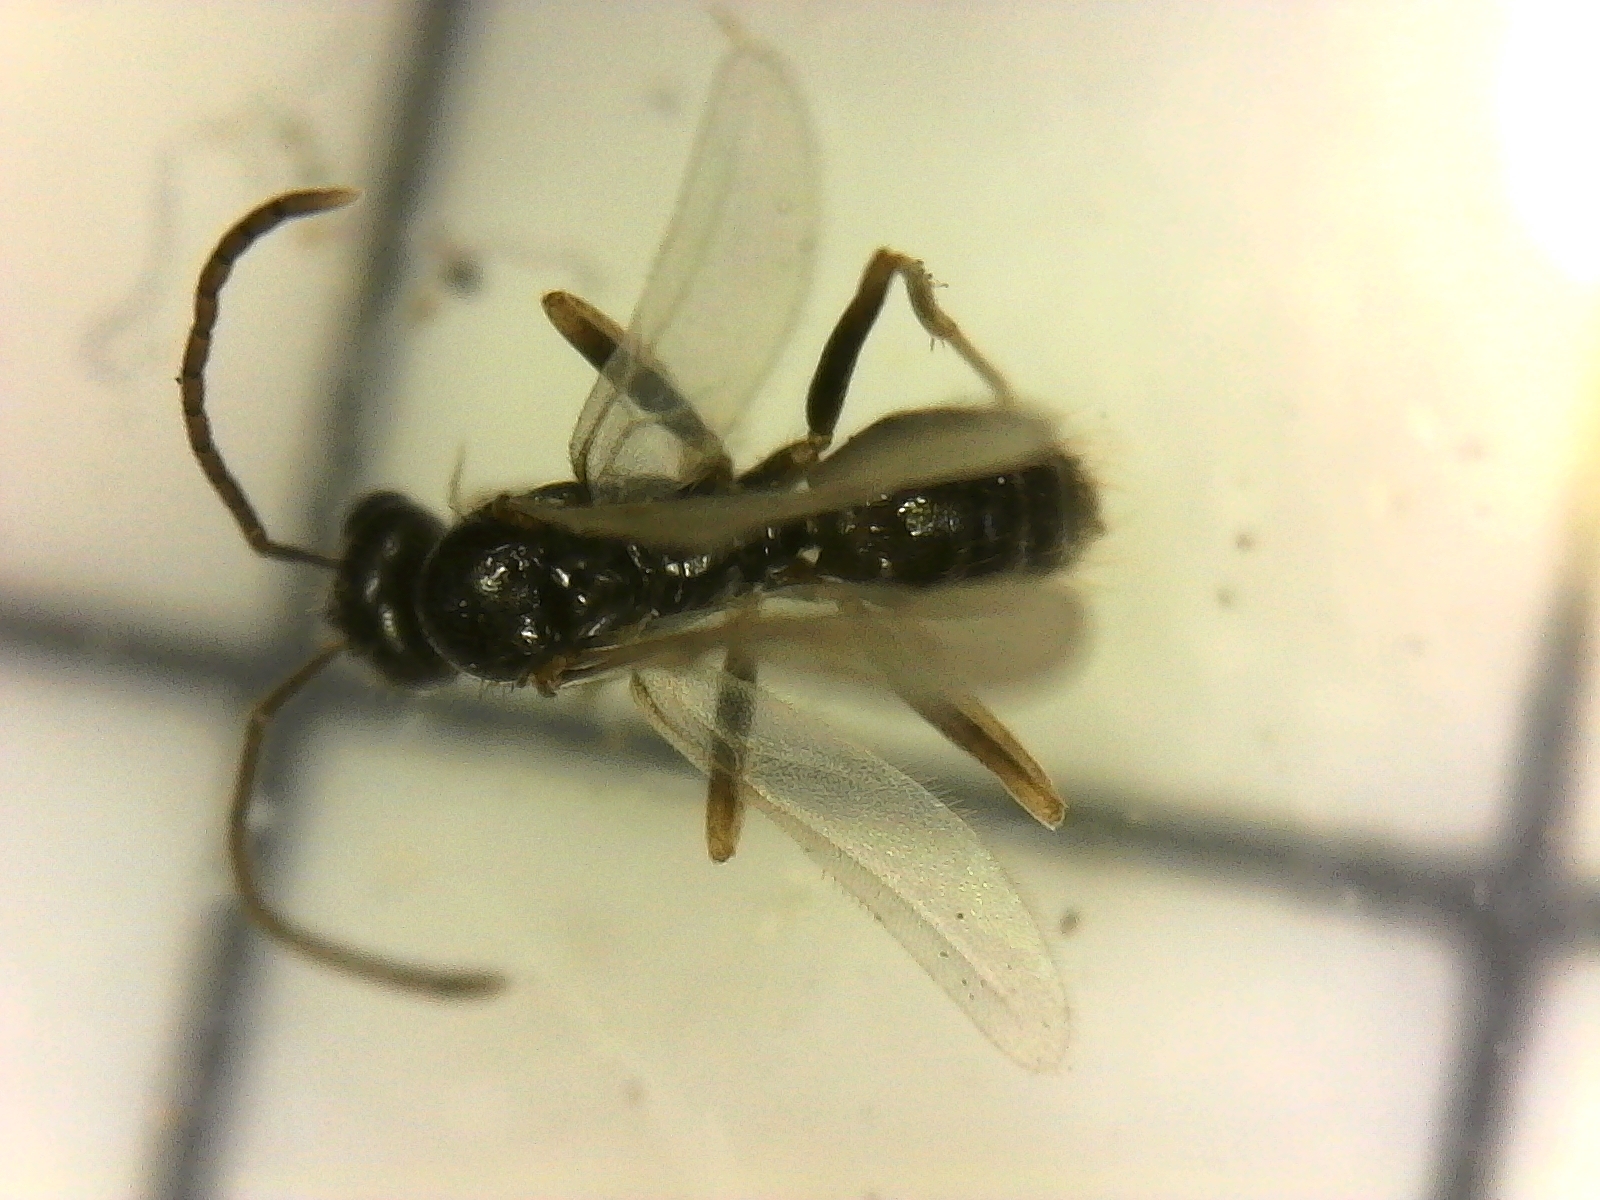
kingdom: Animalia
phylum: Arthropoda
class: Insecta
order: Hymenoptera
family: Formicidae
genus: Prenolepis
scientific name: Prenolepis imparis
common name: Small honey ant
